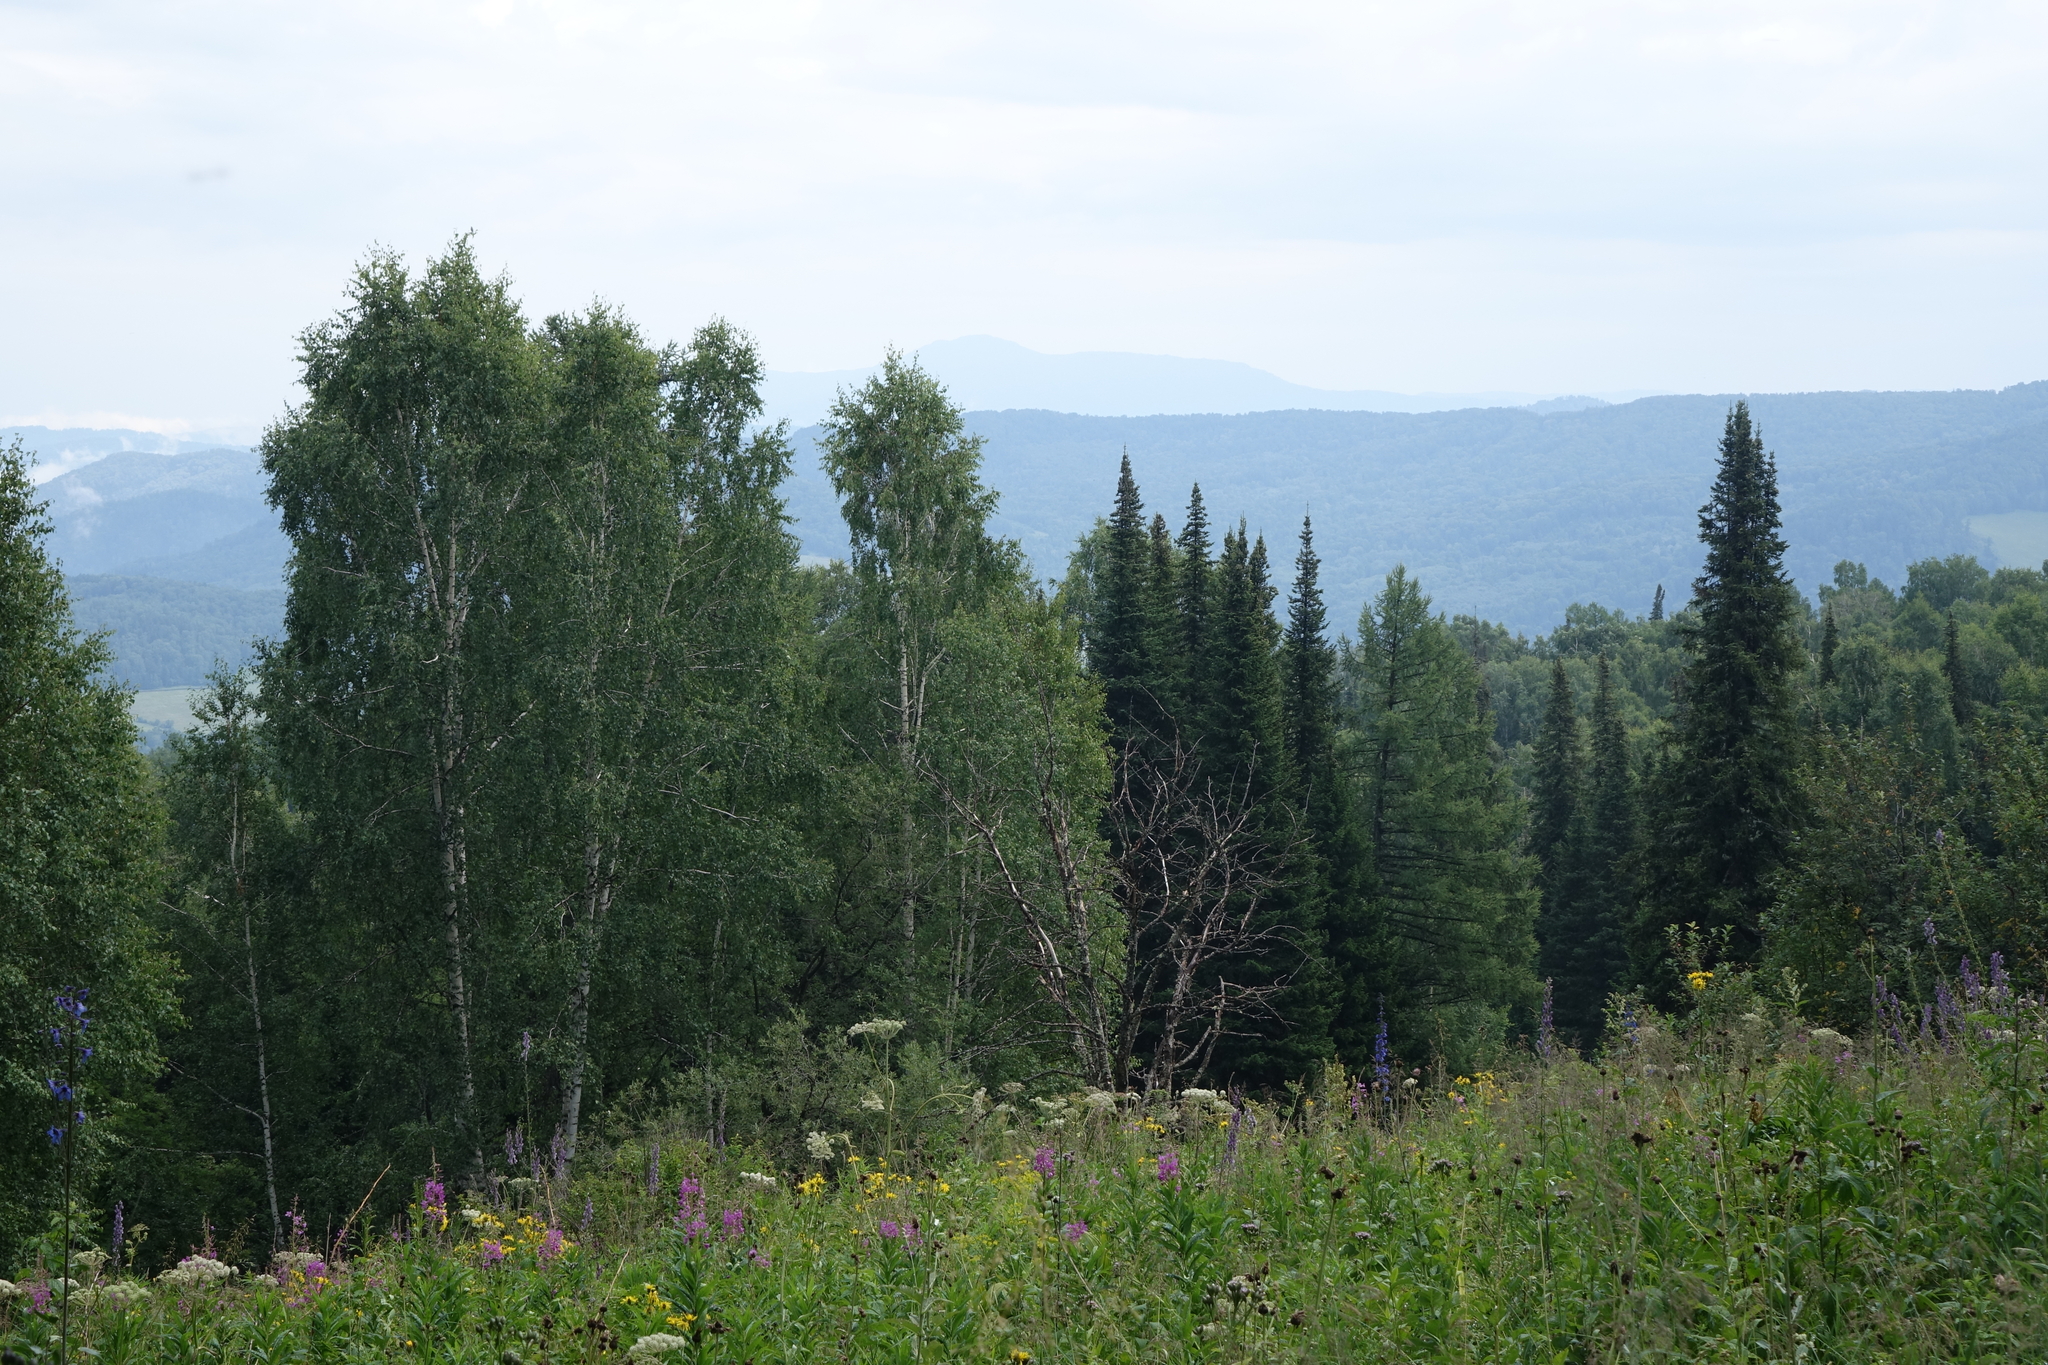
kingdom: Plantae
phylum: Tracheophyta
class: Pinopsida
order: Pinales
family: Pinaceae
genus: Abies
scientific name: Abies sibirica
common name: Siberian fir
